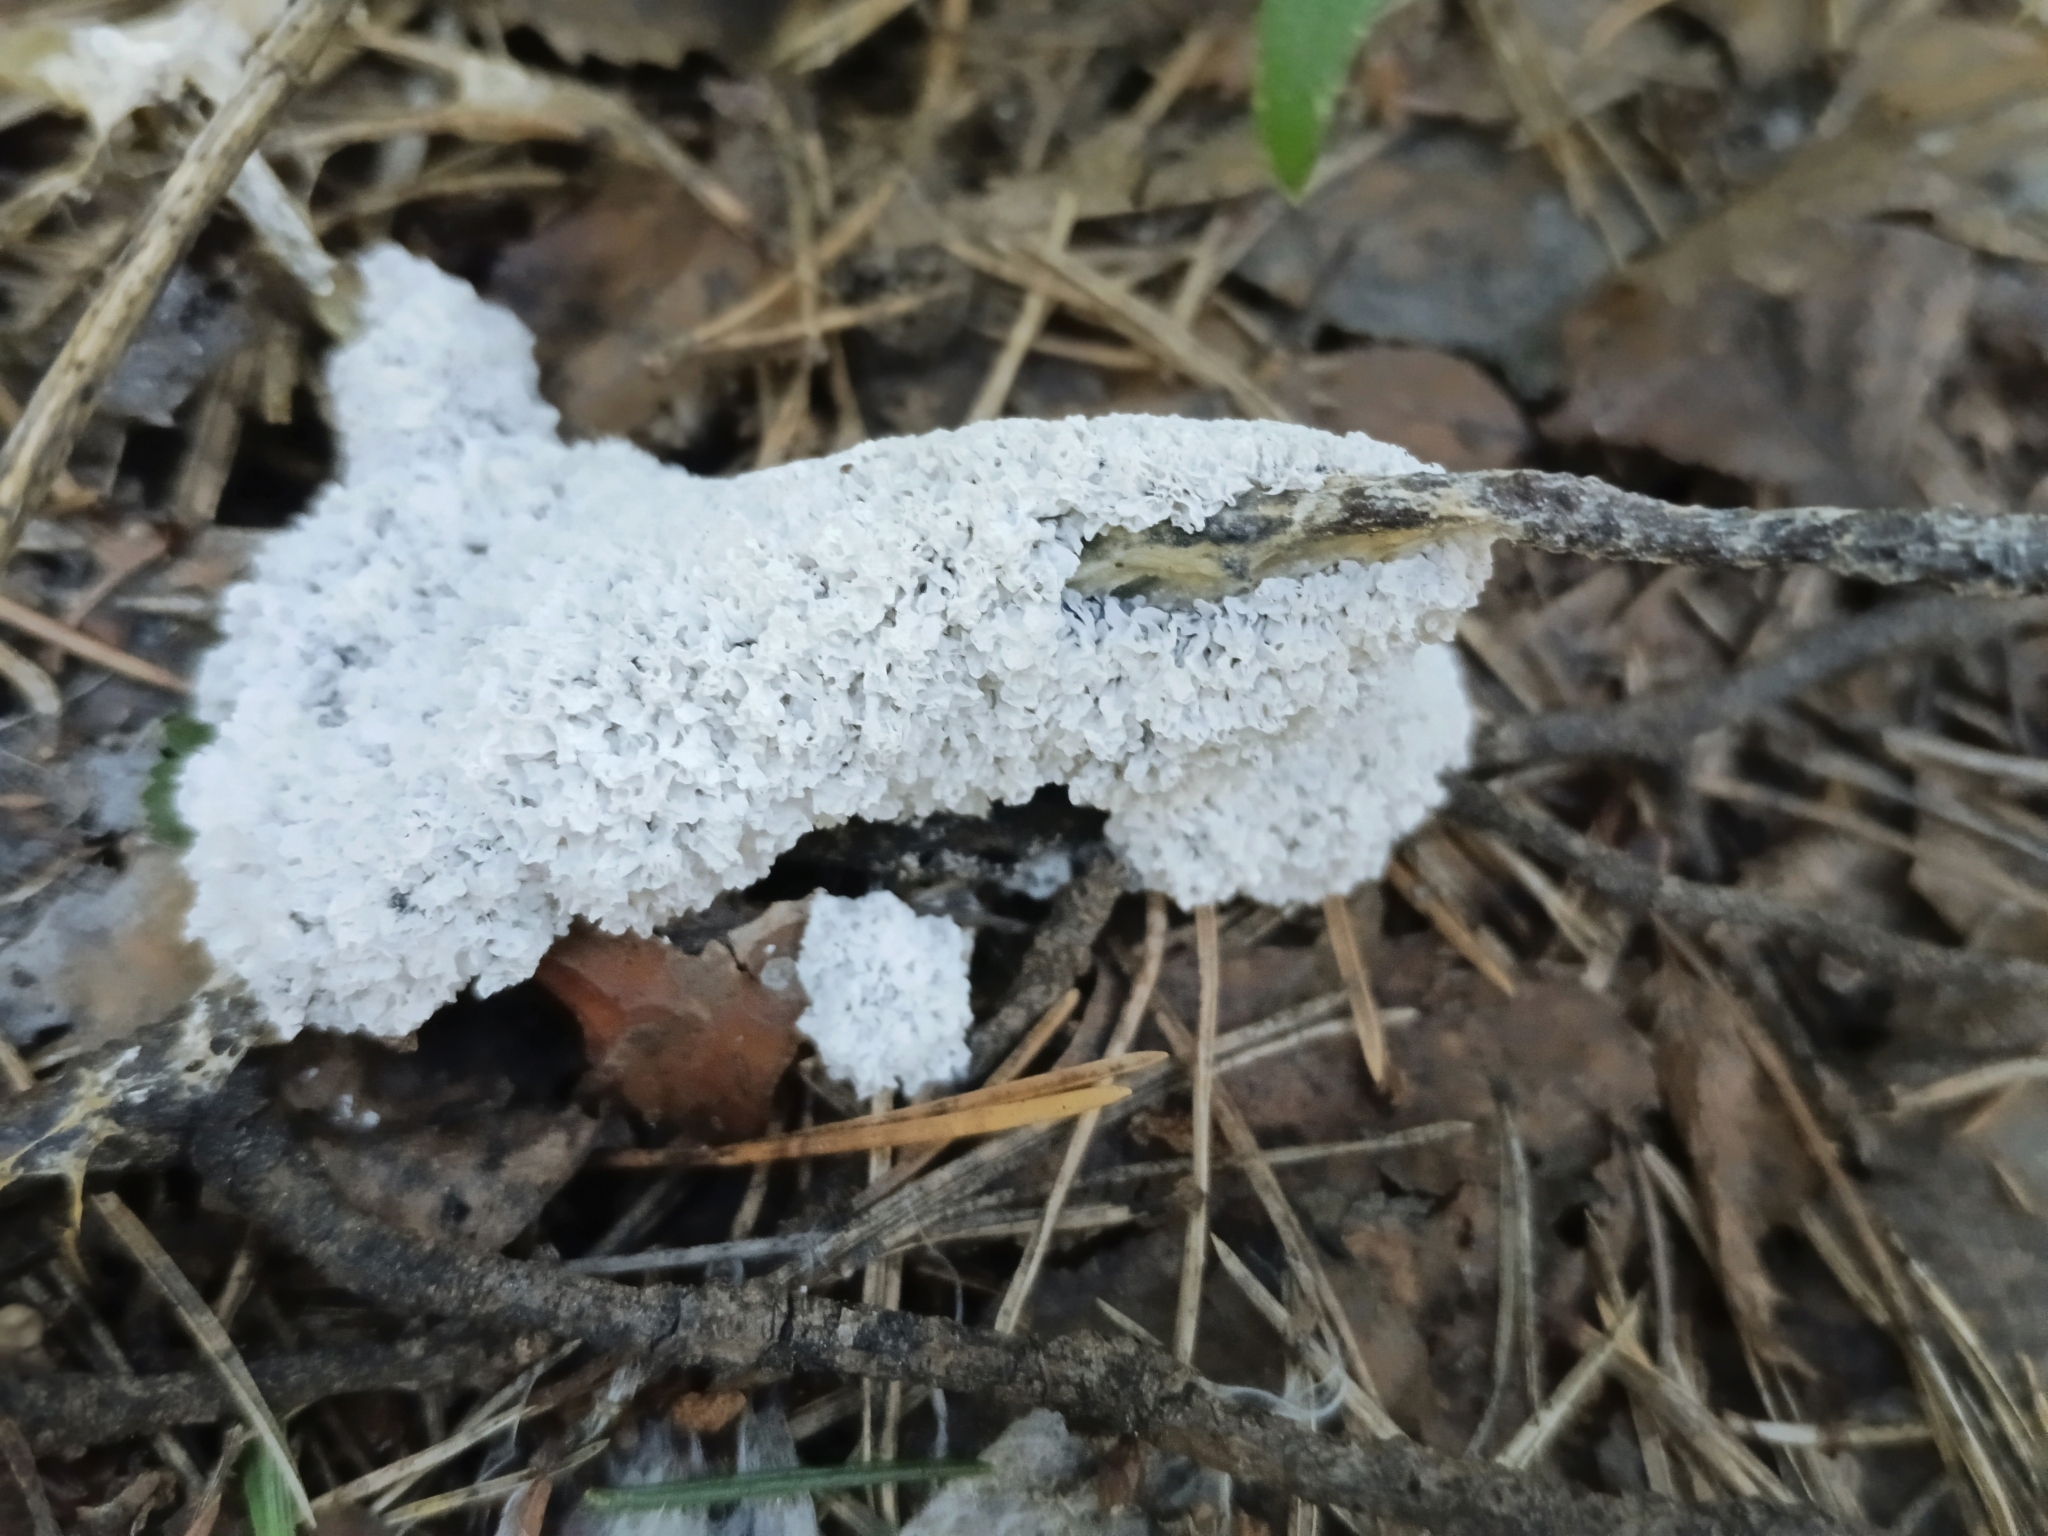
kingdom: Protozoa
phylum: Mycetozoa
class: Myxomycetes
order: Physarales
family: Physaraceae
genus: Didymium
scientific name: Didymium
